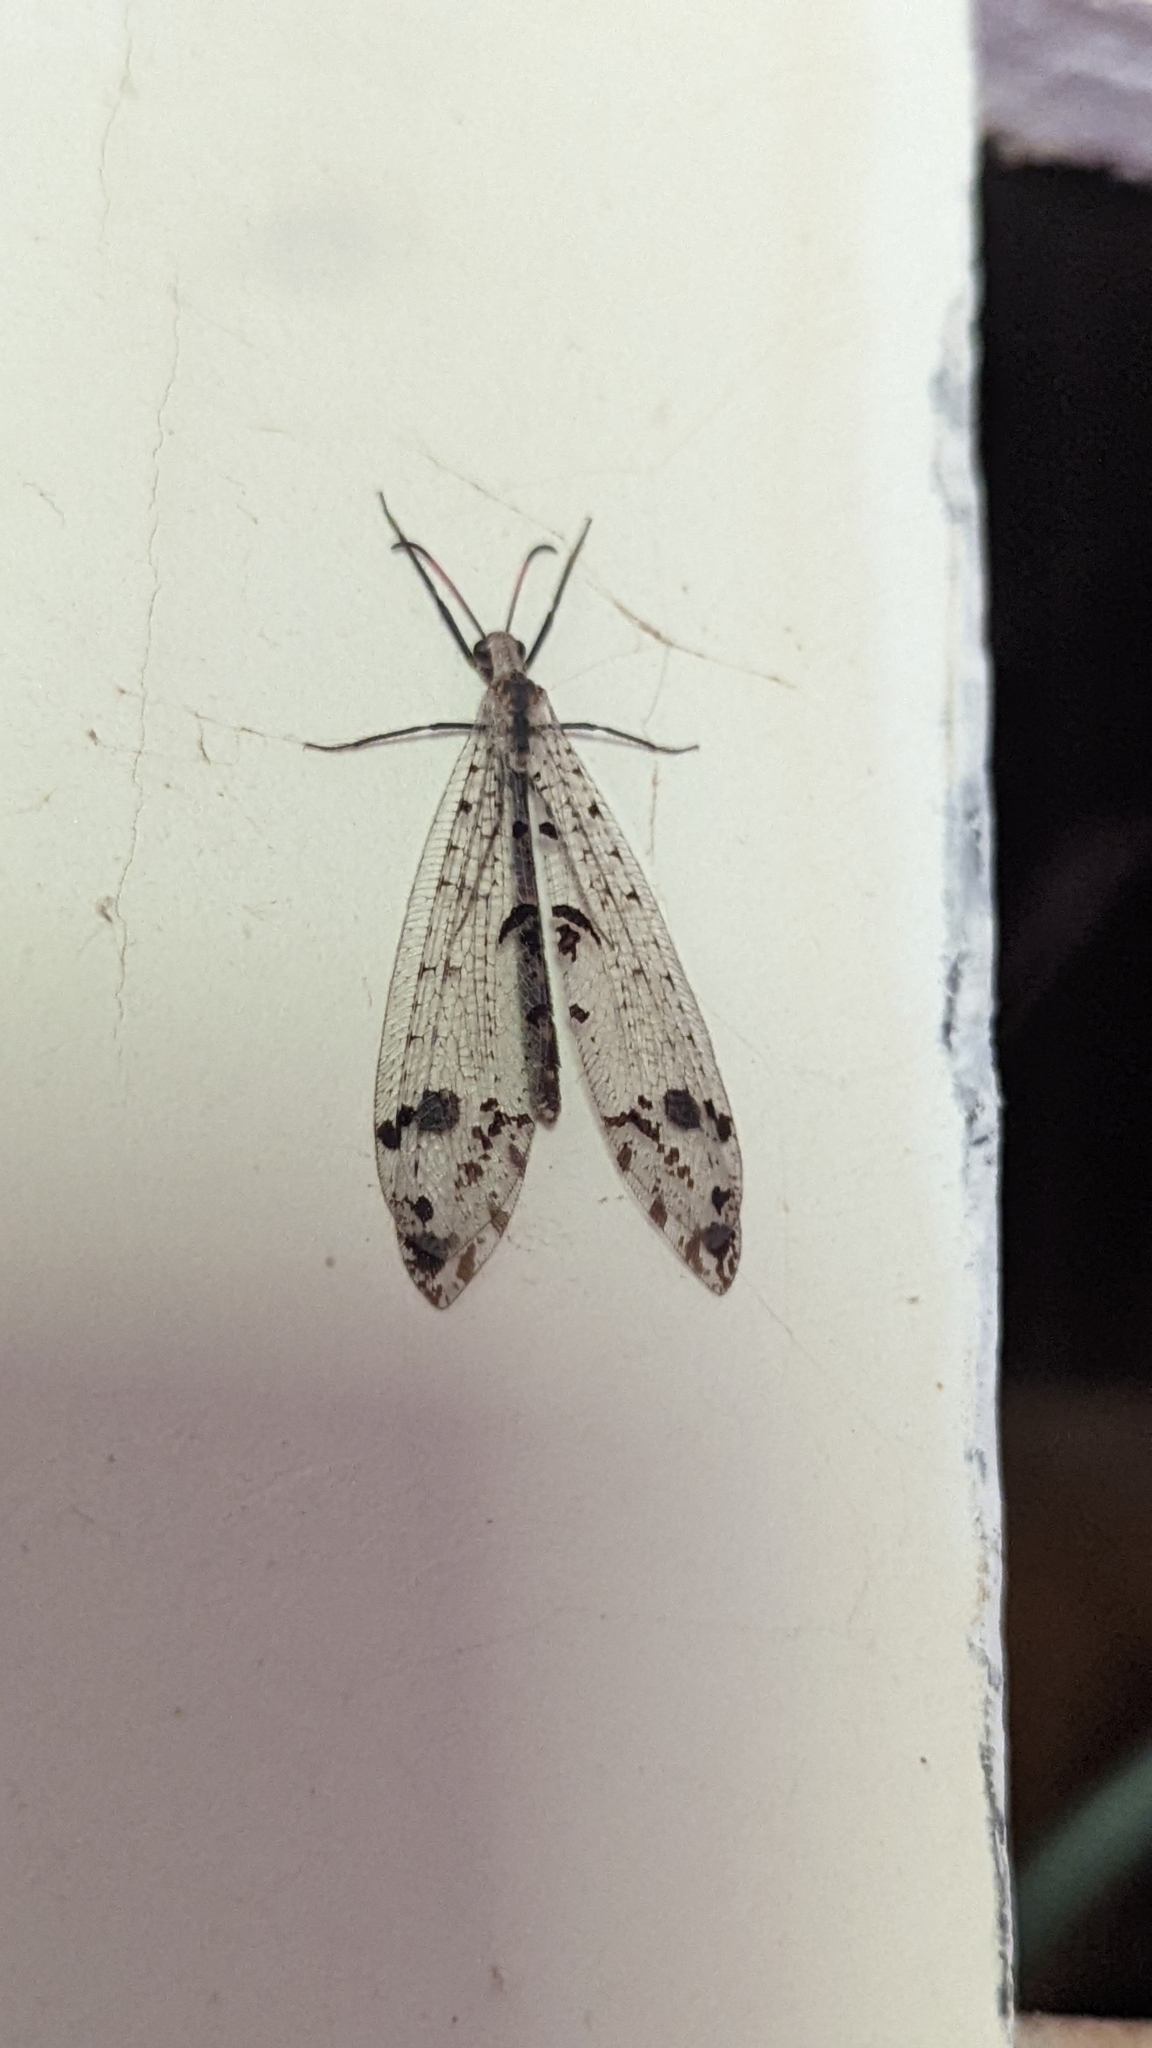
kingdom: Animalia
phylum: Arthropoda
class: Insecta
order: Neuroptera
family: Myrmeleontidae
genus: Dendroleon
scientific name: Dendroleon obsoletus
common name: Eastern spotted-winged antlion
